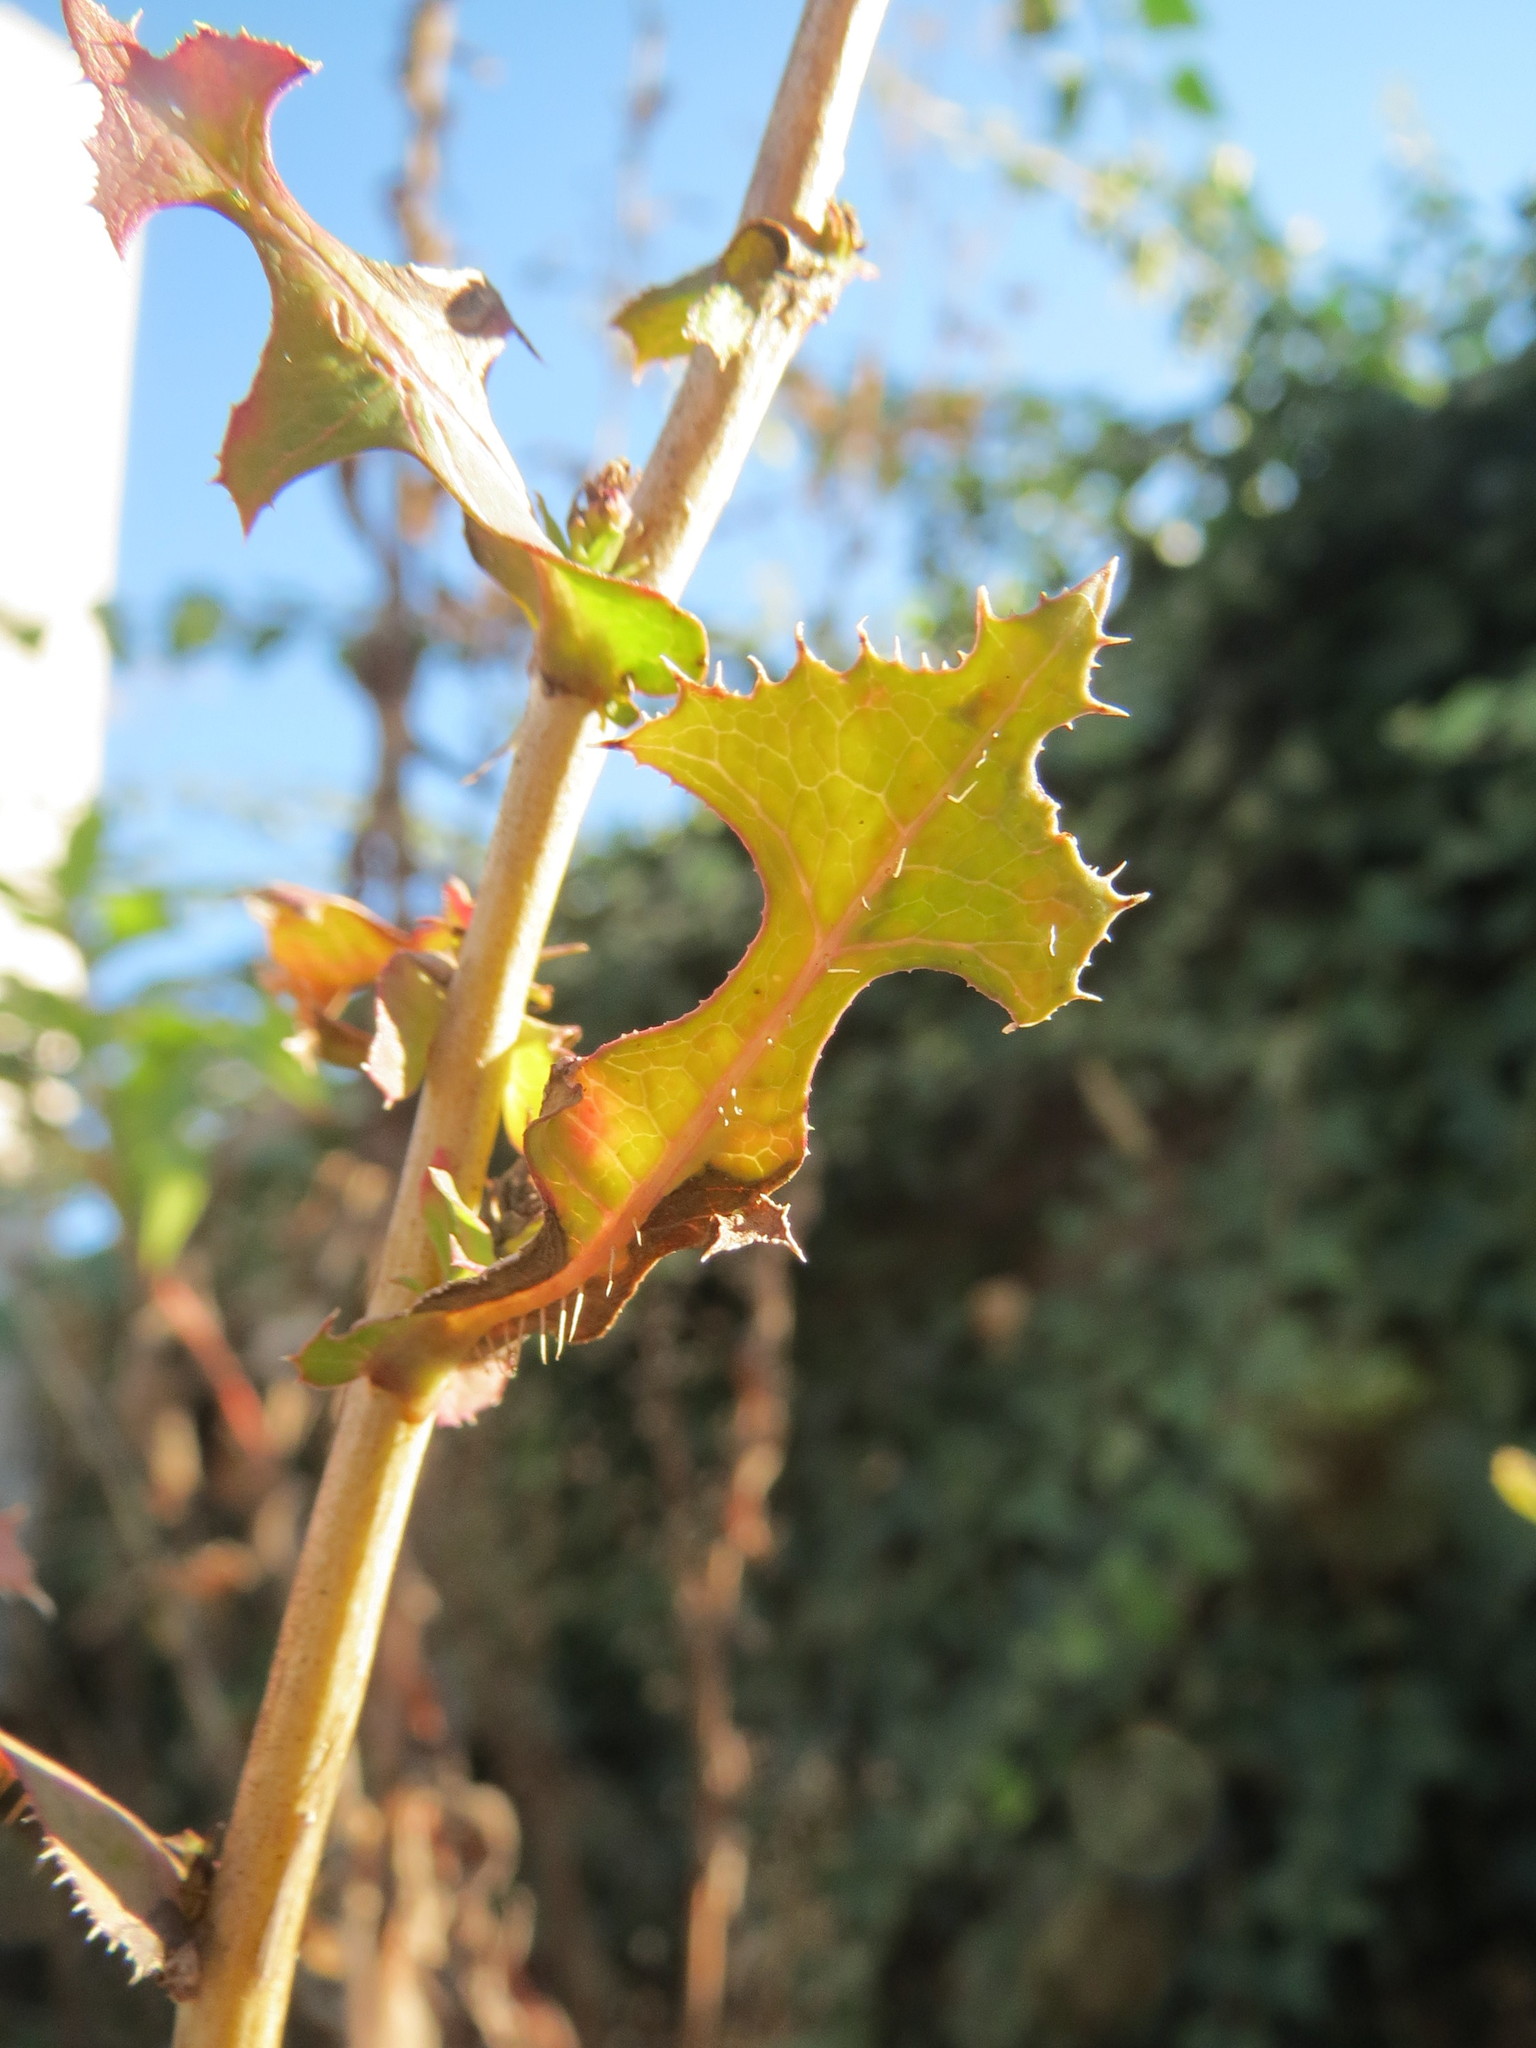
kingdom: Plantae
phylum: Tracheophyta
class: Magnoliopsida
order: Asterales
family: Asteraceae
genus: Lactuca
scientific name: Lactuca serriola
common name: Prickly lettuce
